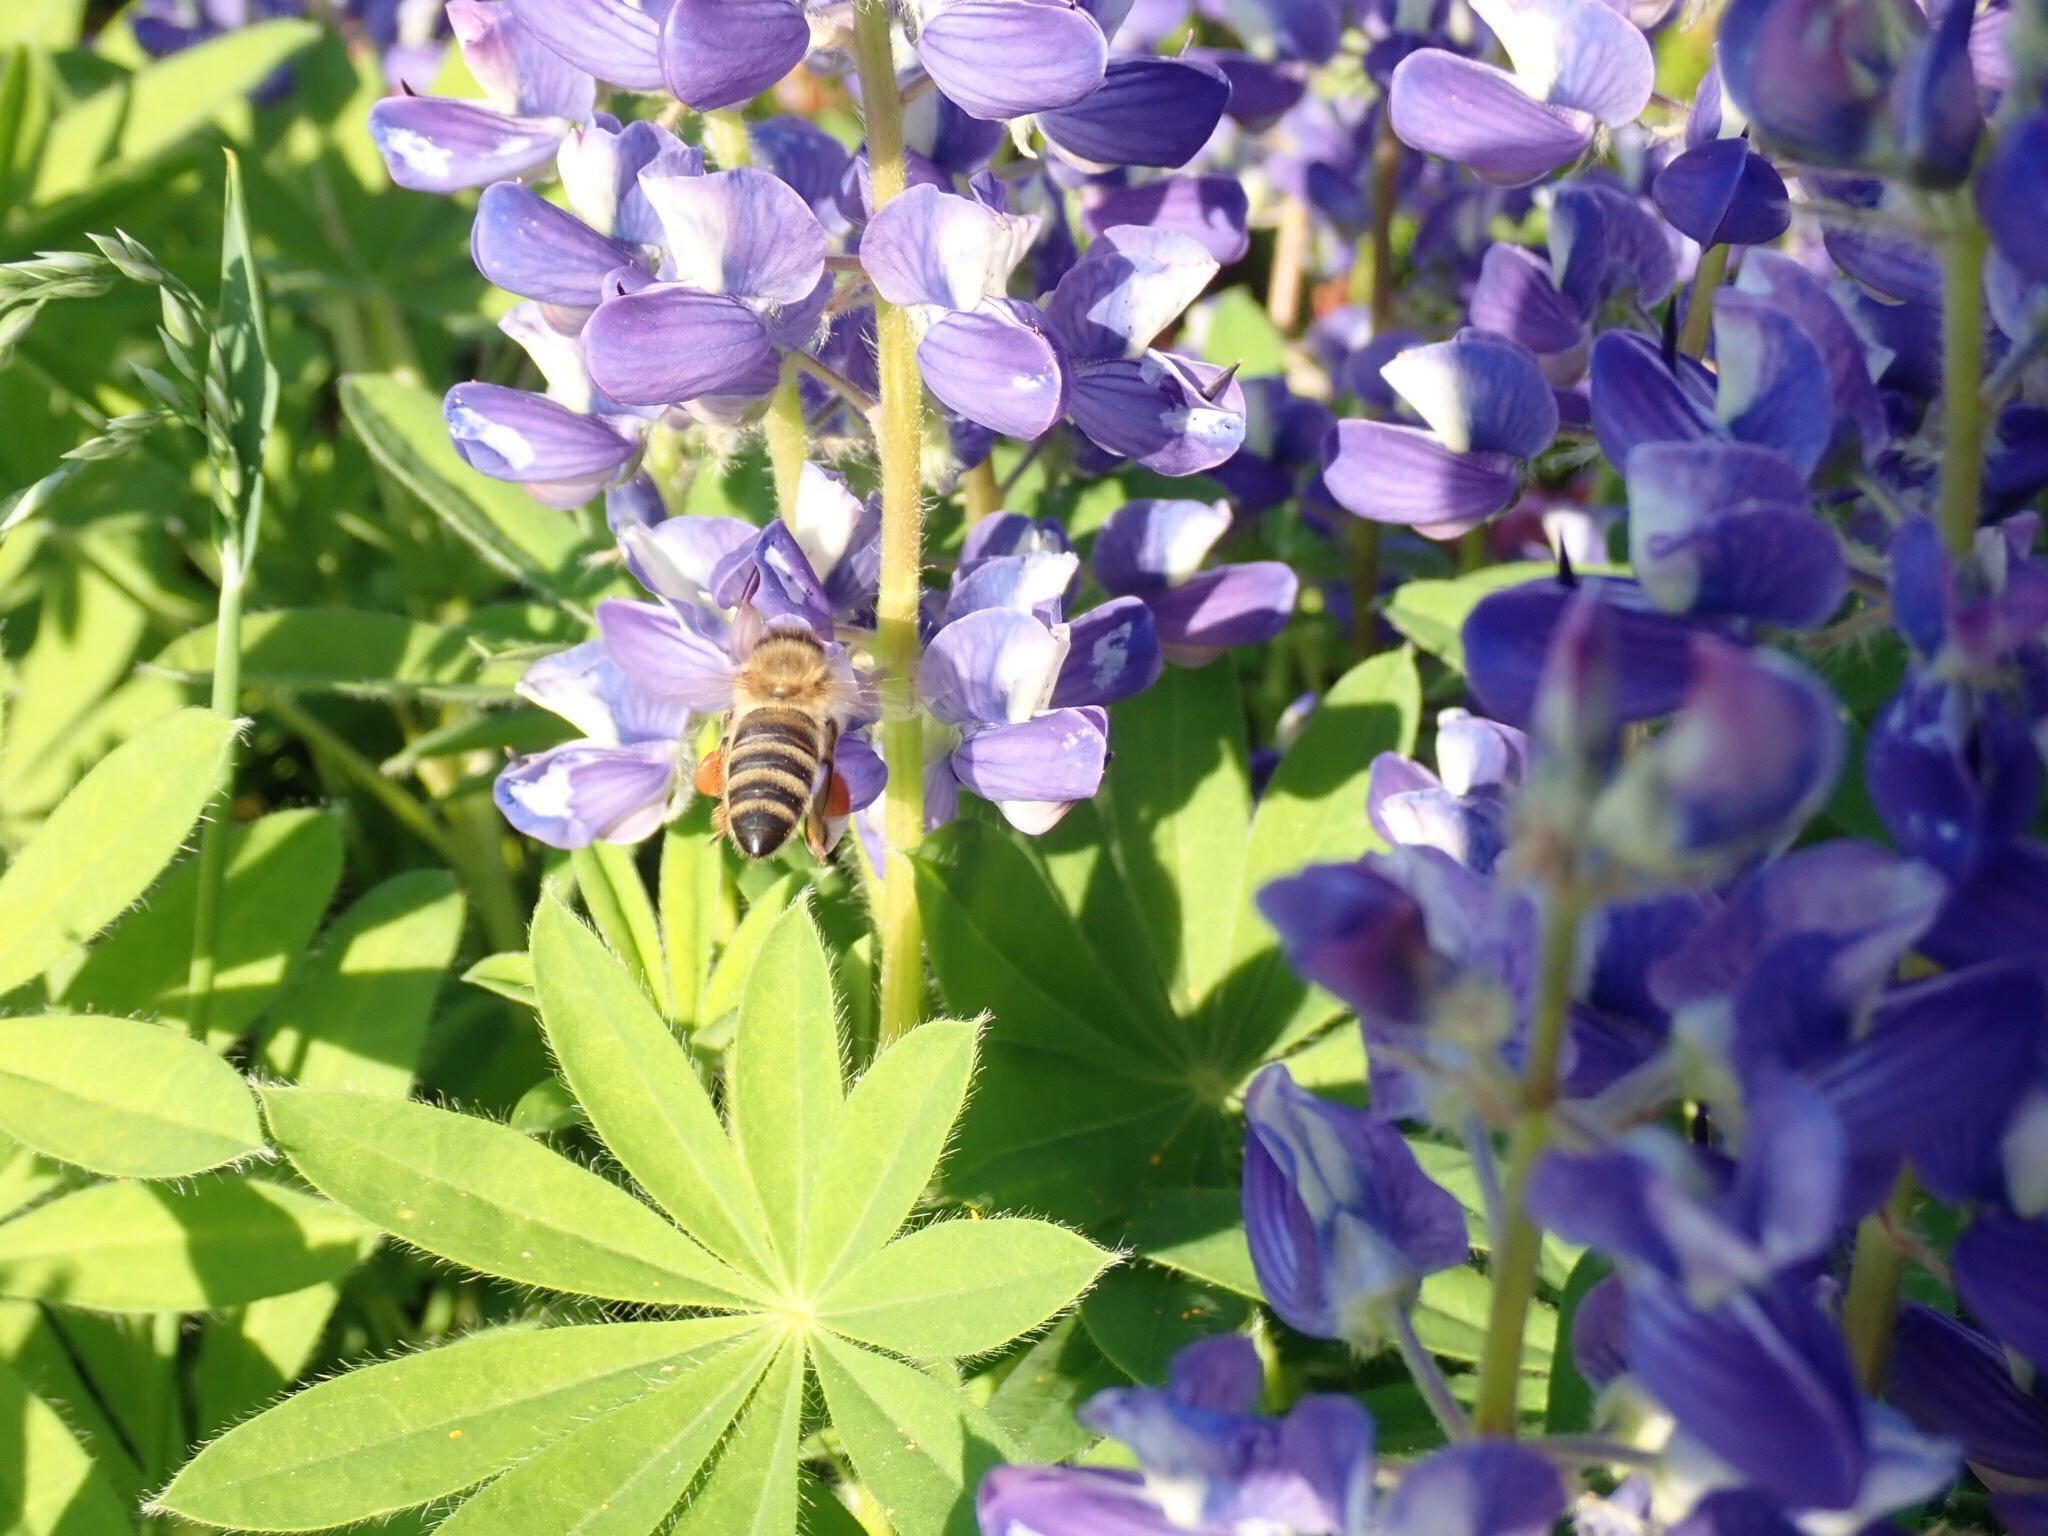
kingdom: Animalia
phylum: Arthropoda
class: Insecta
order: Hymenoptera
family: Apidae
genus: Apis
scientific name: Apis mellifera
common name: Honey bee
